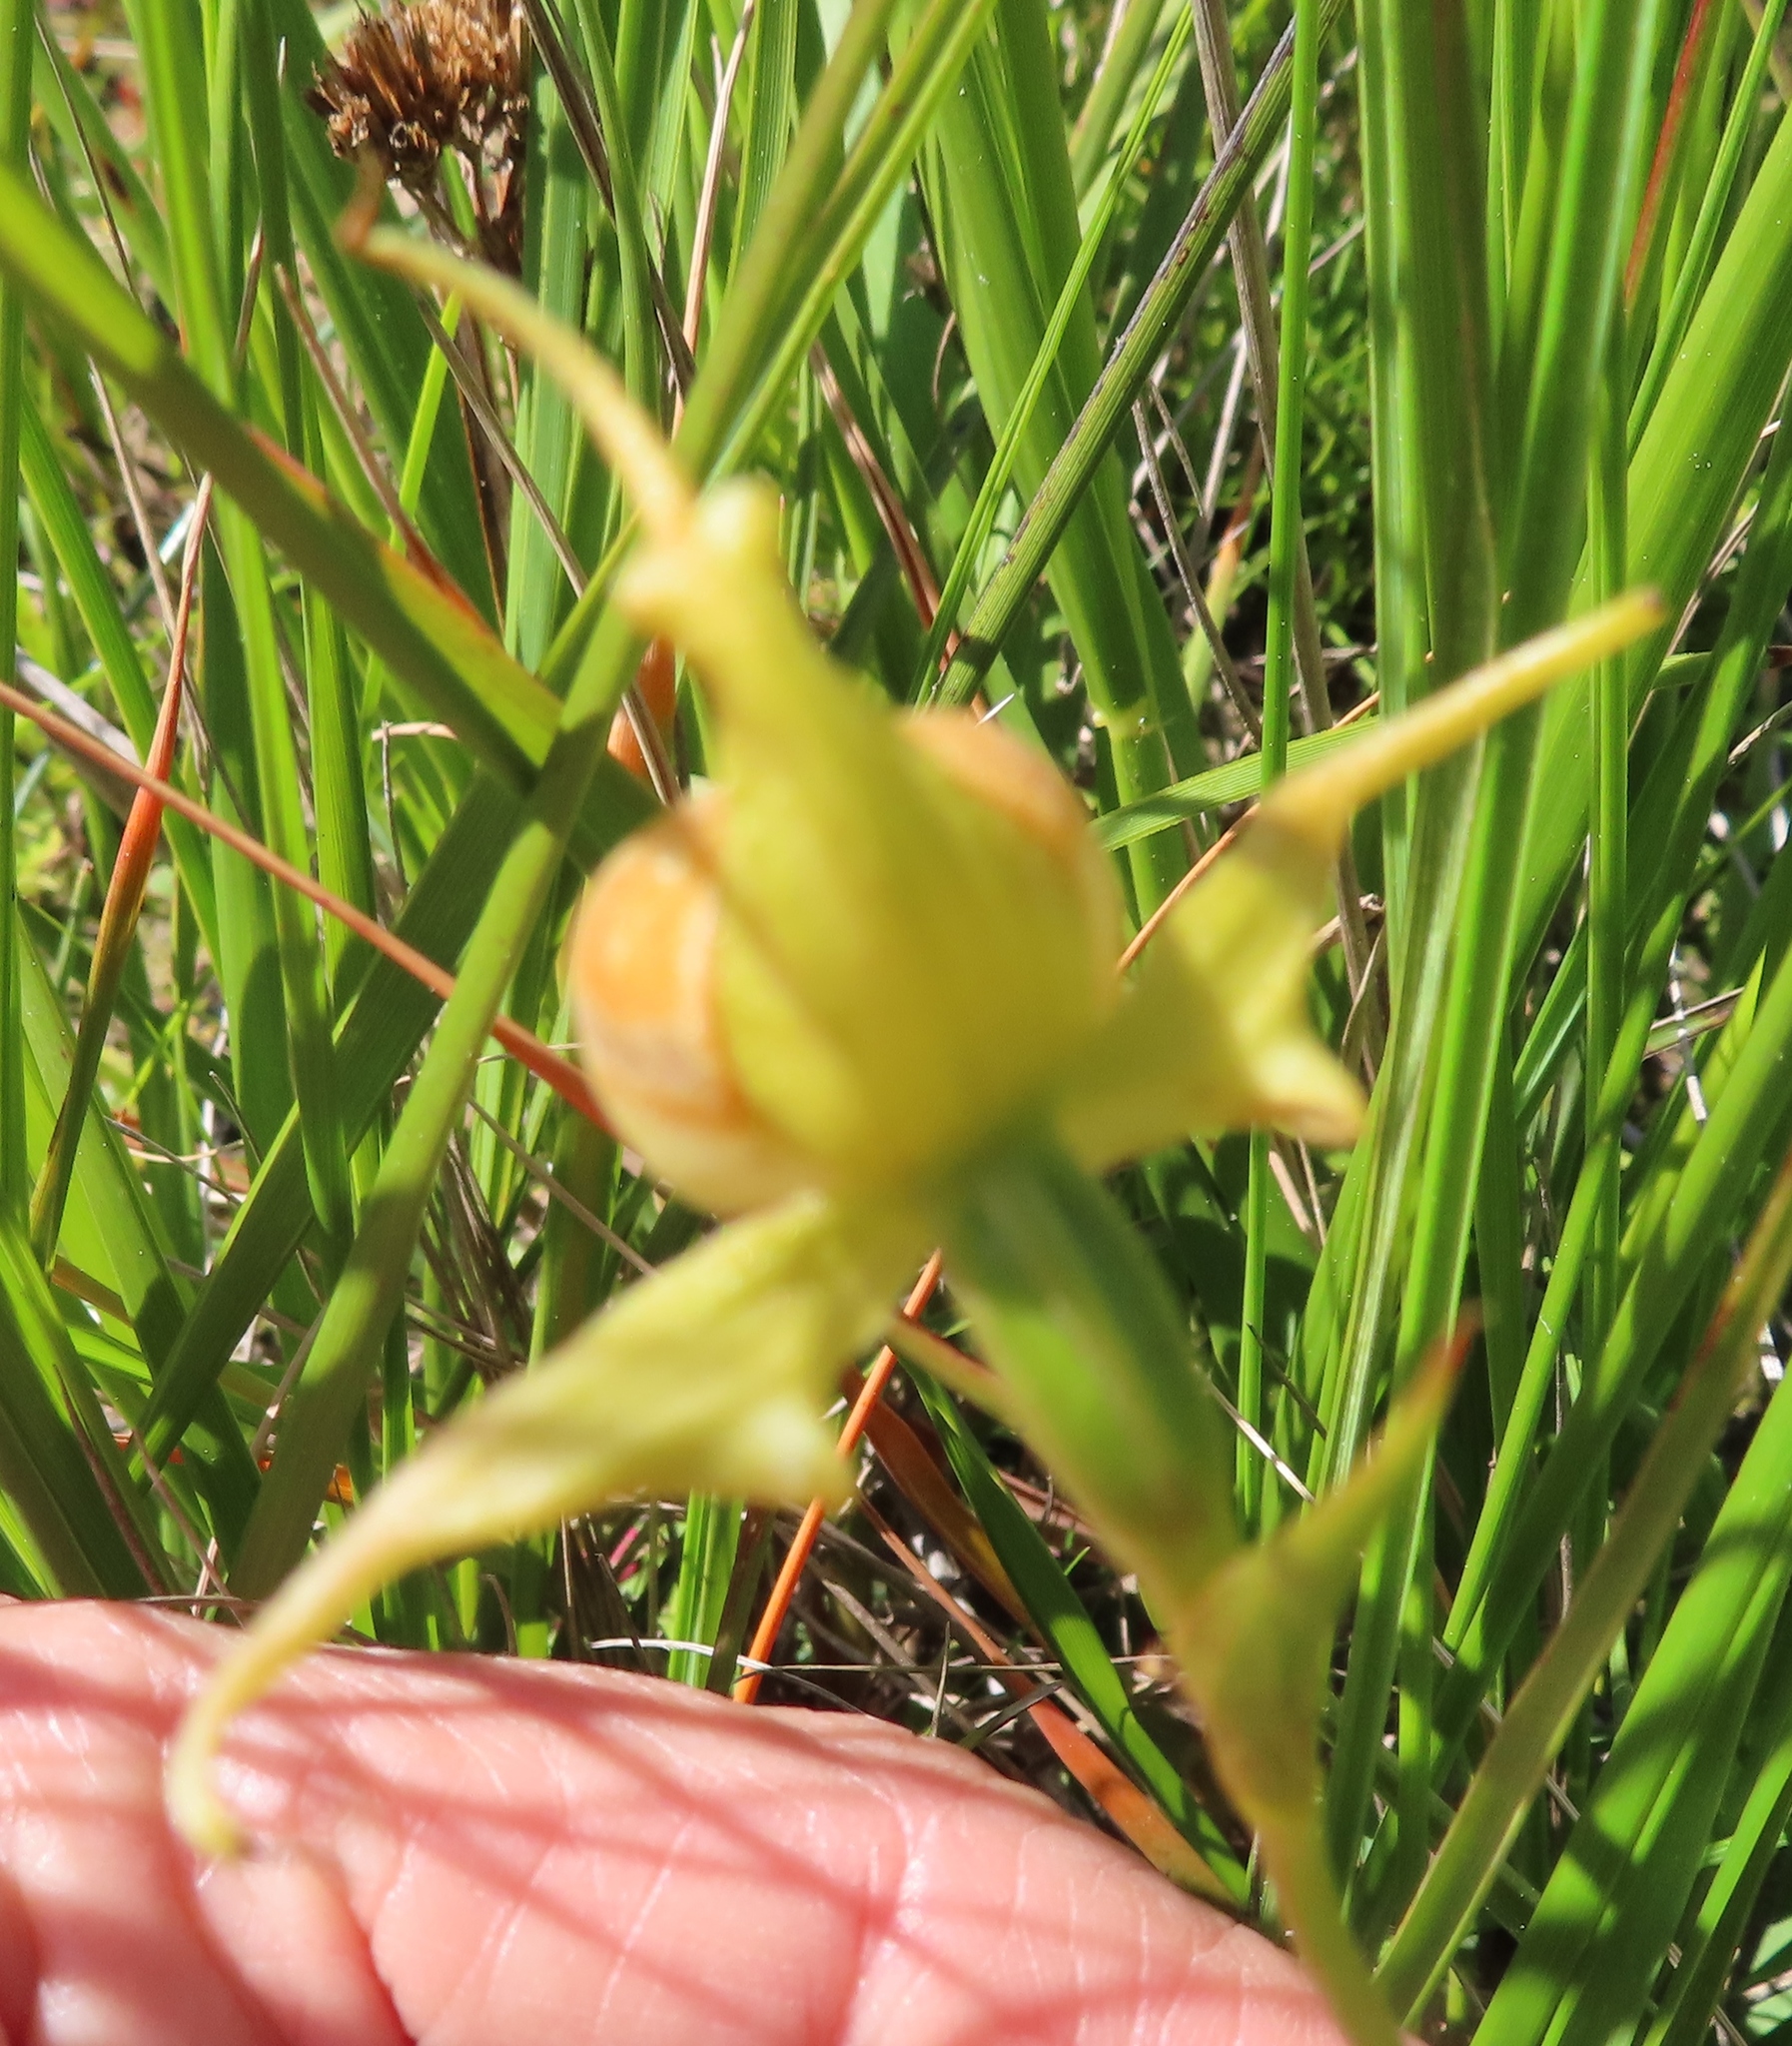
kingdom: Plantae
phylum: Tracheophyta
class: Liliopsida
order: Asparagales
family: Orchidaceae
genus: Disperis
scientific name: Disperis capensis
